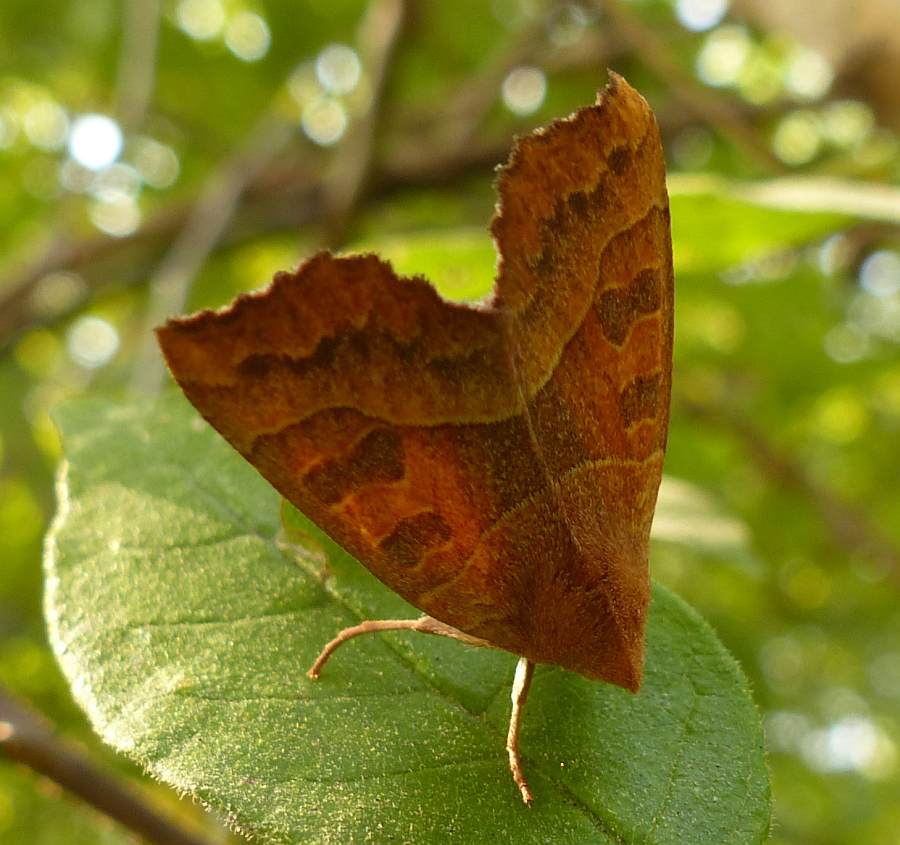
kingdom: Animalia
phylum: Arthropoda
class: Insecta
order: Lepidoptera
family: Noctuidae
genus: Eucirroedia
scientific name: Eucirroedia pampina
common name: Scalloped sallow
